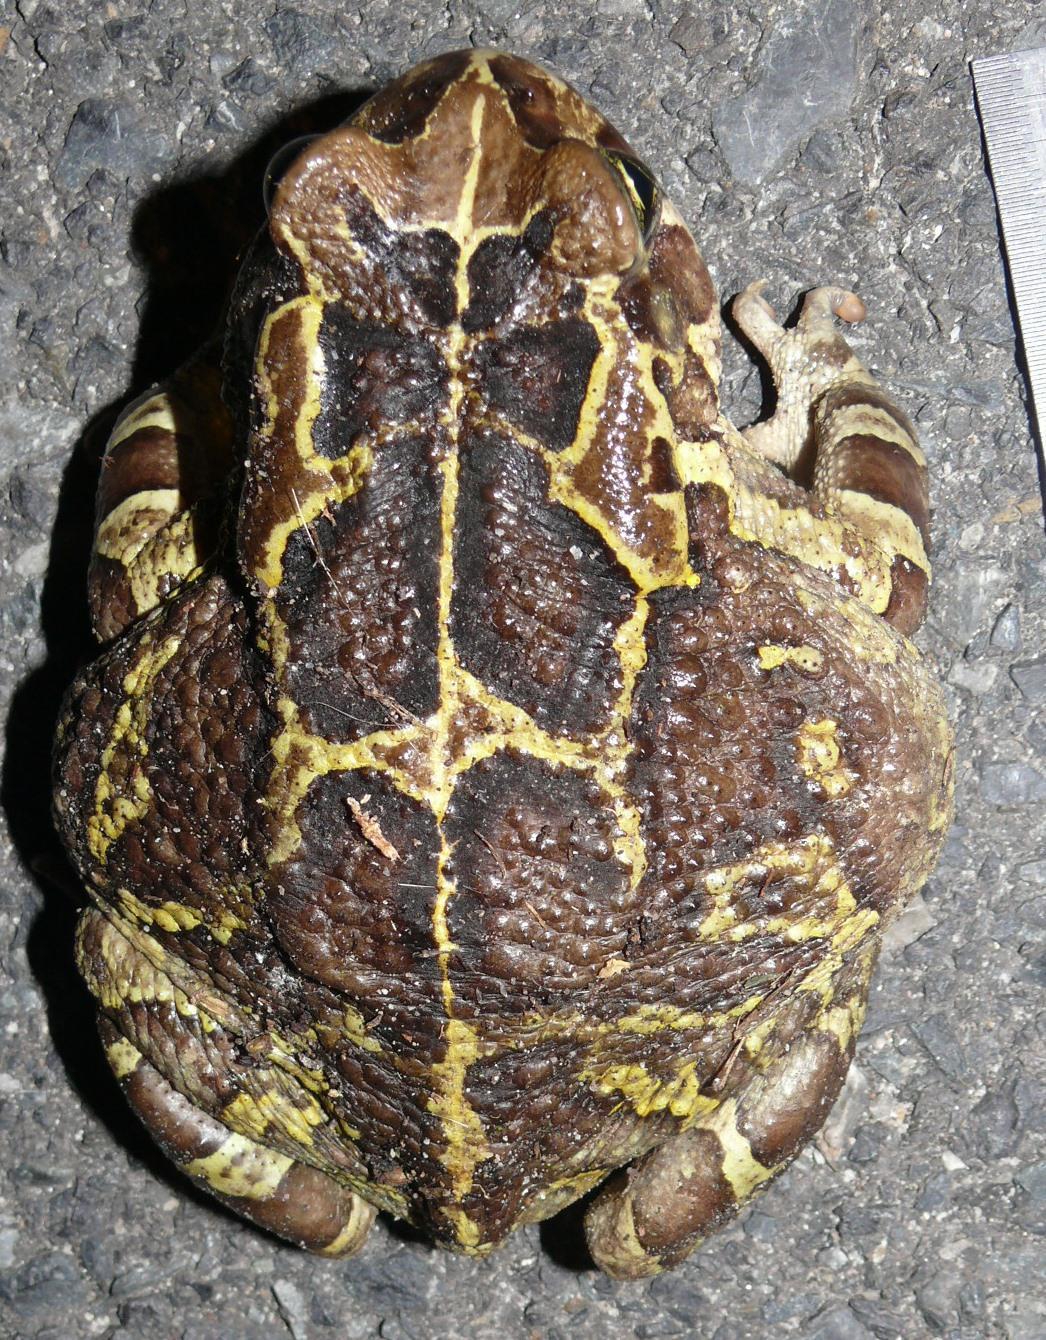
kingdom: Animalia
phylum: Chordata
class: Amphibia
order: Anura
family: Bufonidae
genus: Sclerophrys
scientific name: Sclerophrys pantherina
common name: Panther toad
